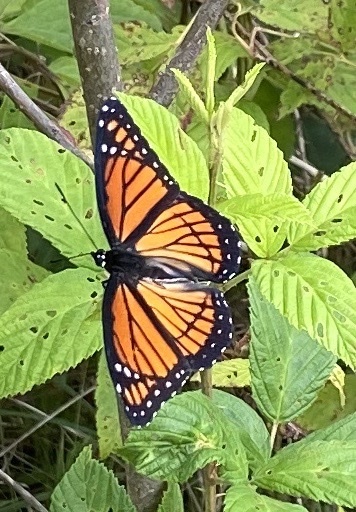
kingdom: Animalia
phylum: Arthropoda
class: Insecta
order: Lepidoptera
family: Nymphalidae
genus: Limenitis
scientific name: Limenitis archippus
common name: Viceroy
